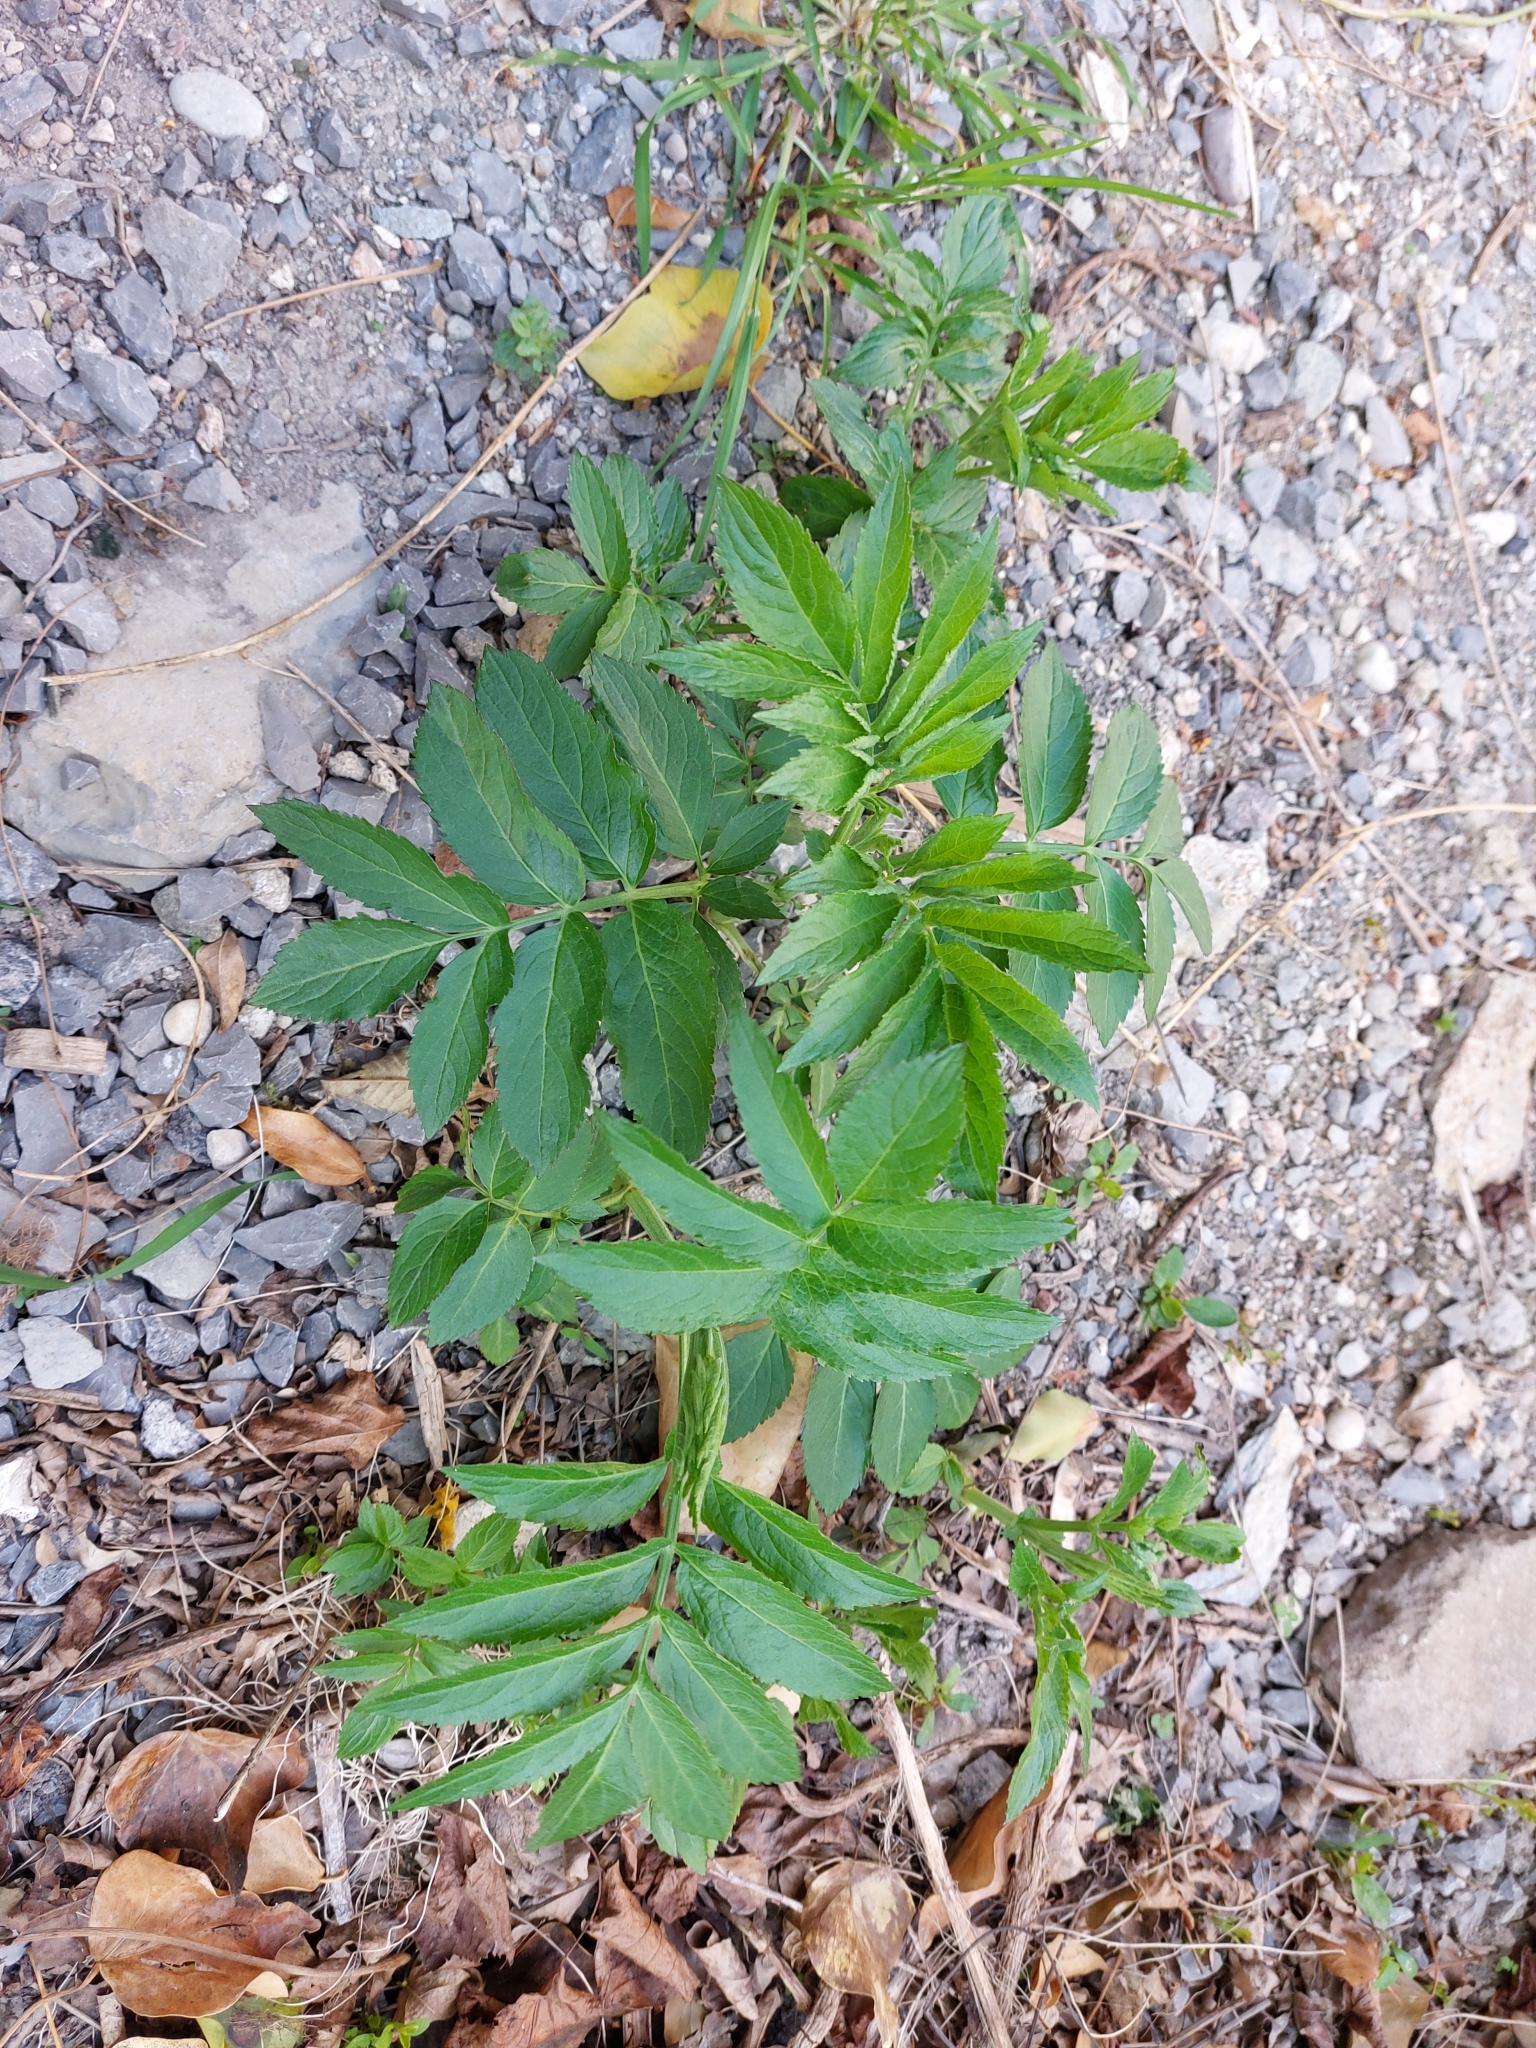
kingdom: Plantae
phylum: Tracheophyta
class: Magnoliopsida
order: Dipsacales
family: Viburnaceae
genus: Sambucus
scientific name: Sambucus ebulus
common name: Dwarf elder
